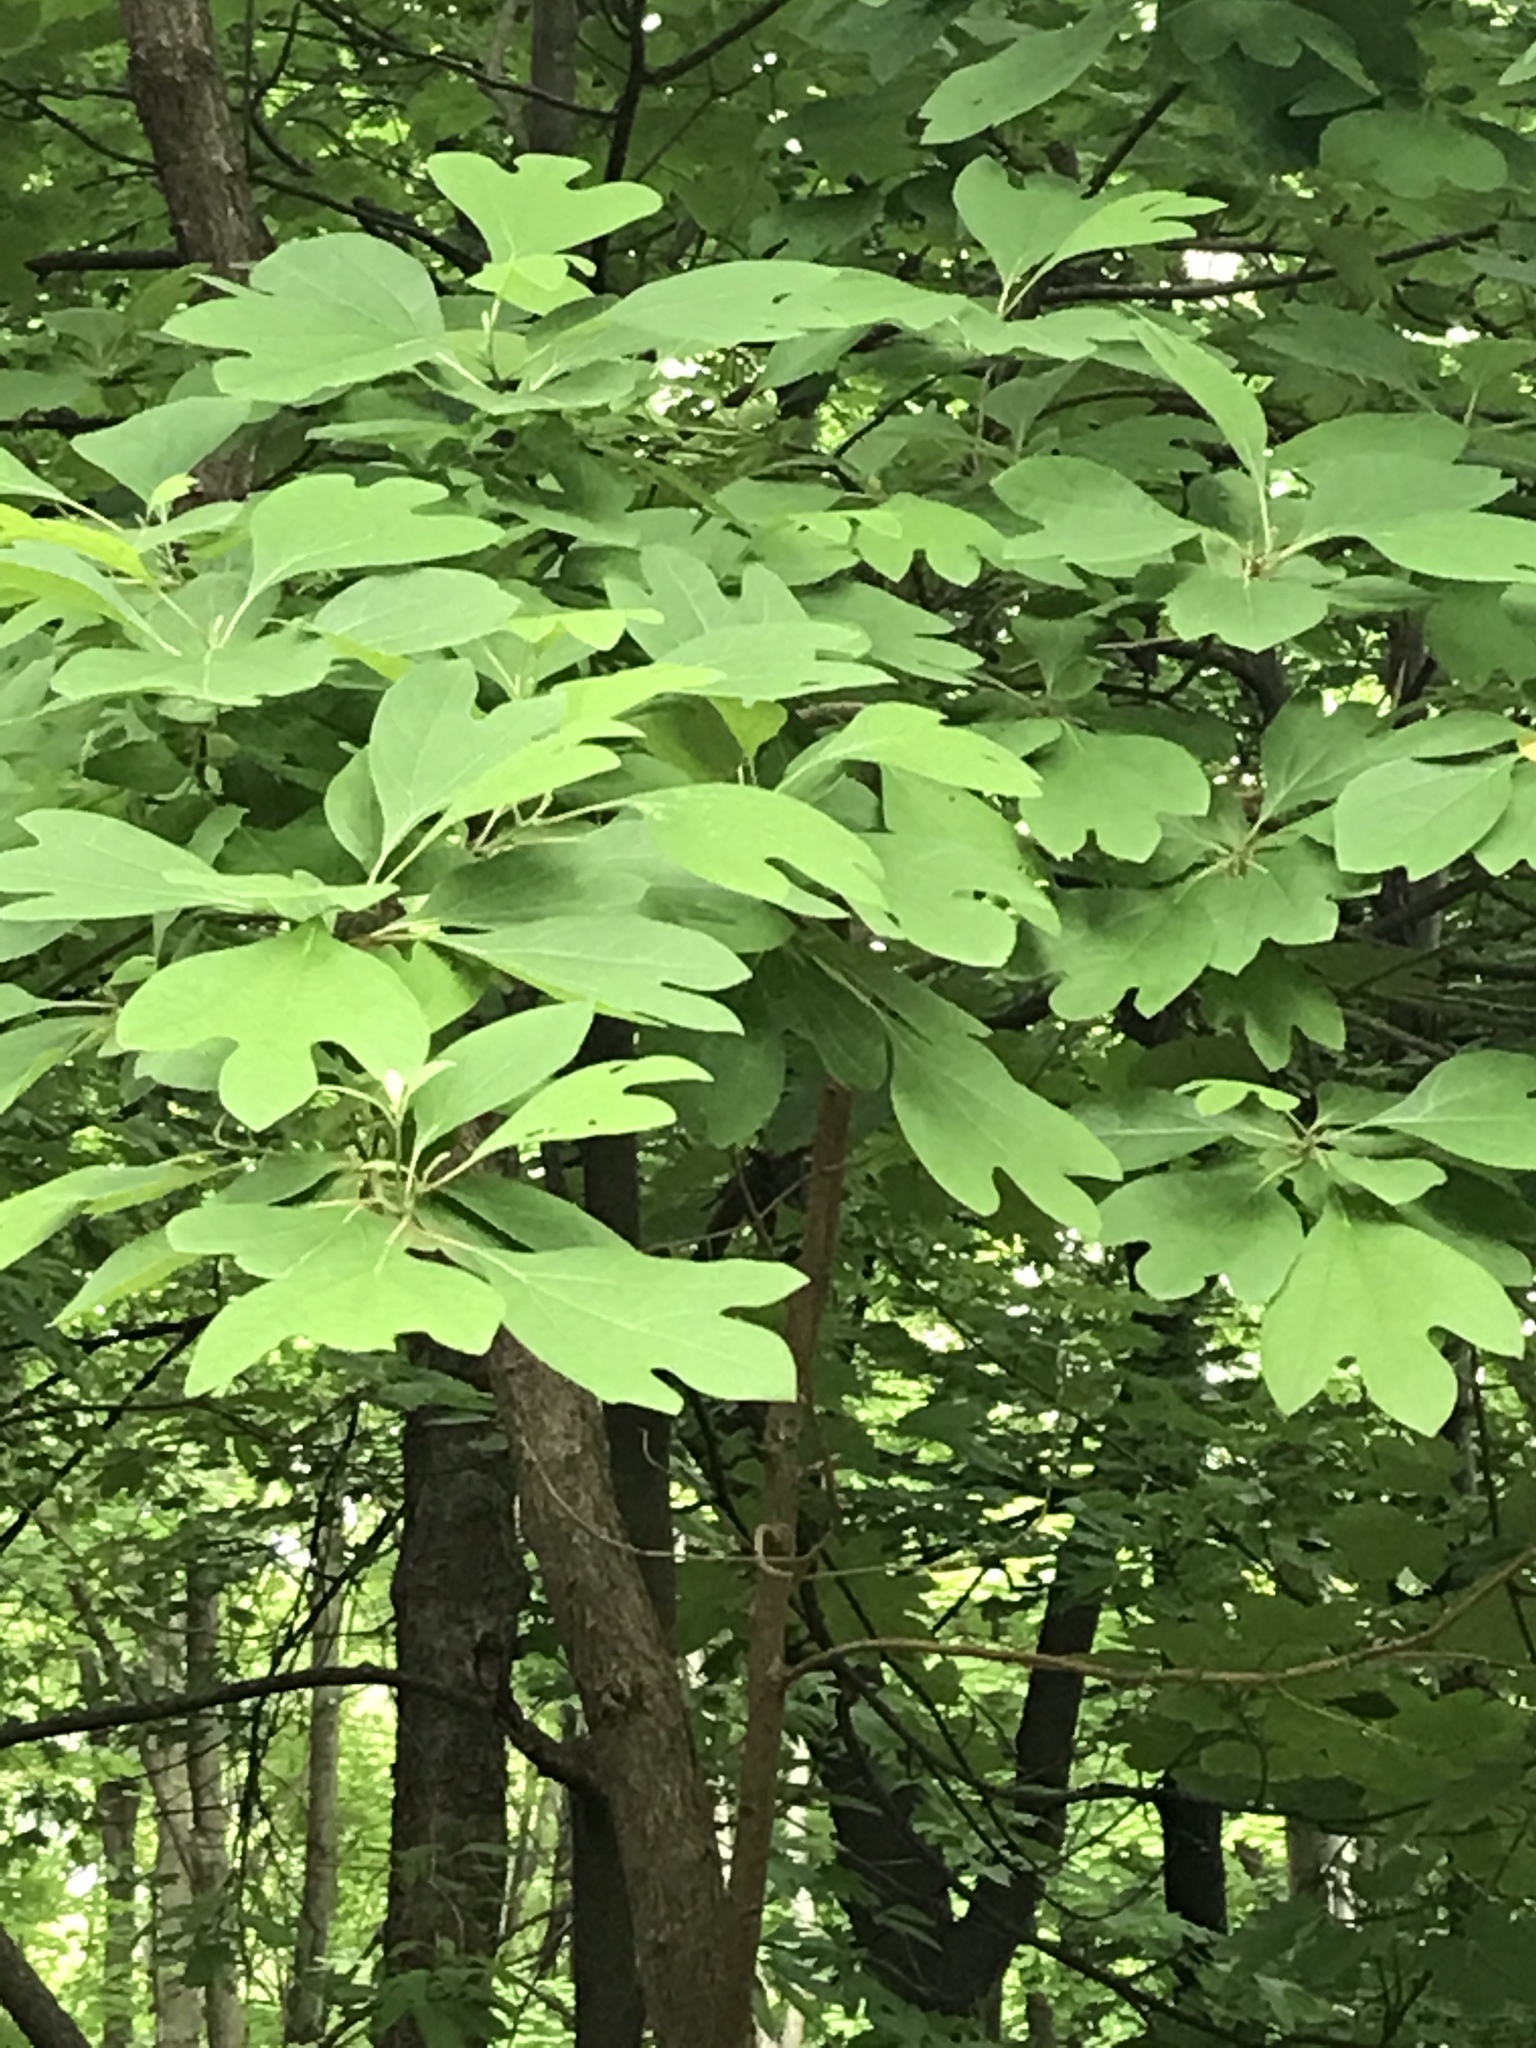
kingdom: Plantae
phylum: Tracheophyta
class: Magnoliopsida
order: Laurales
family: Lauraceae
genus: Sassafras
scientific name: Sassafras albidum
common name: Sassafras
